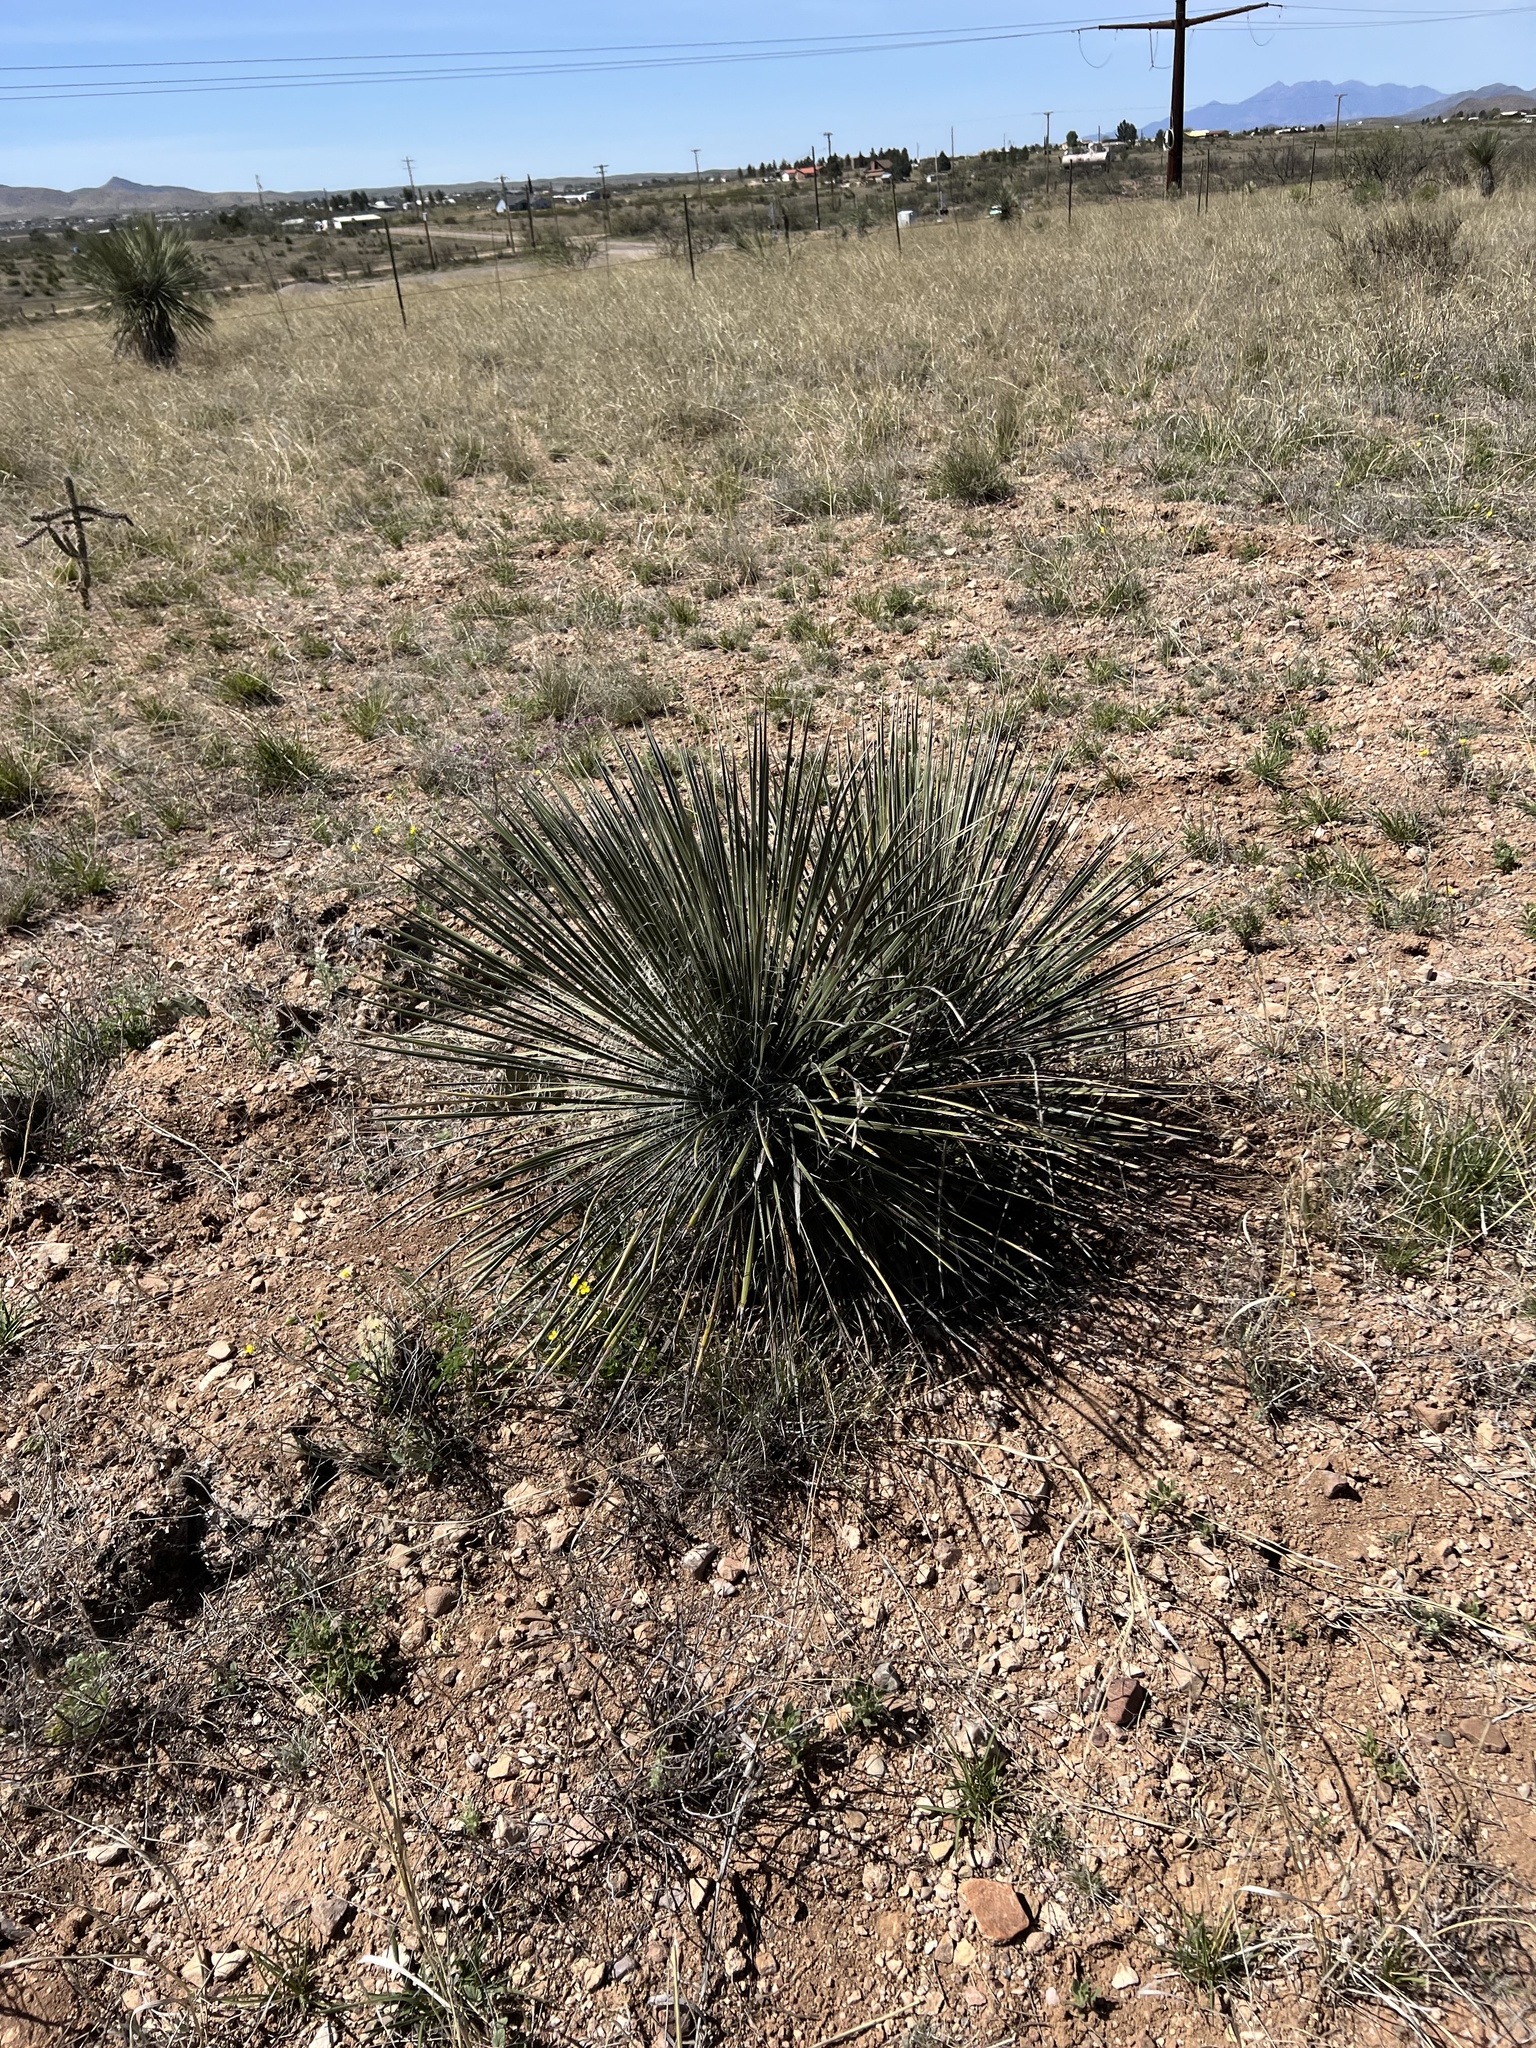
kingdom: Plantae
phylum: Tracheophyta
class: Liliopsida
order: Asparagales
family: Asparagaceae
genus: Yucca
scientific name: Yucca elata
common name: Palmella
